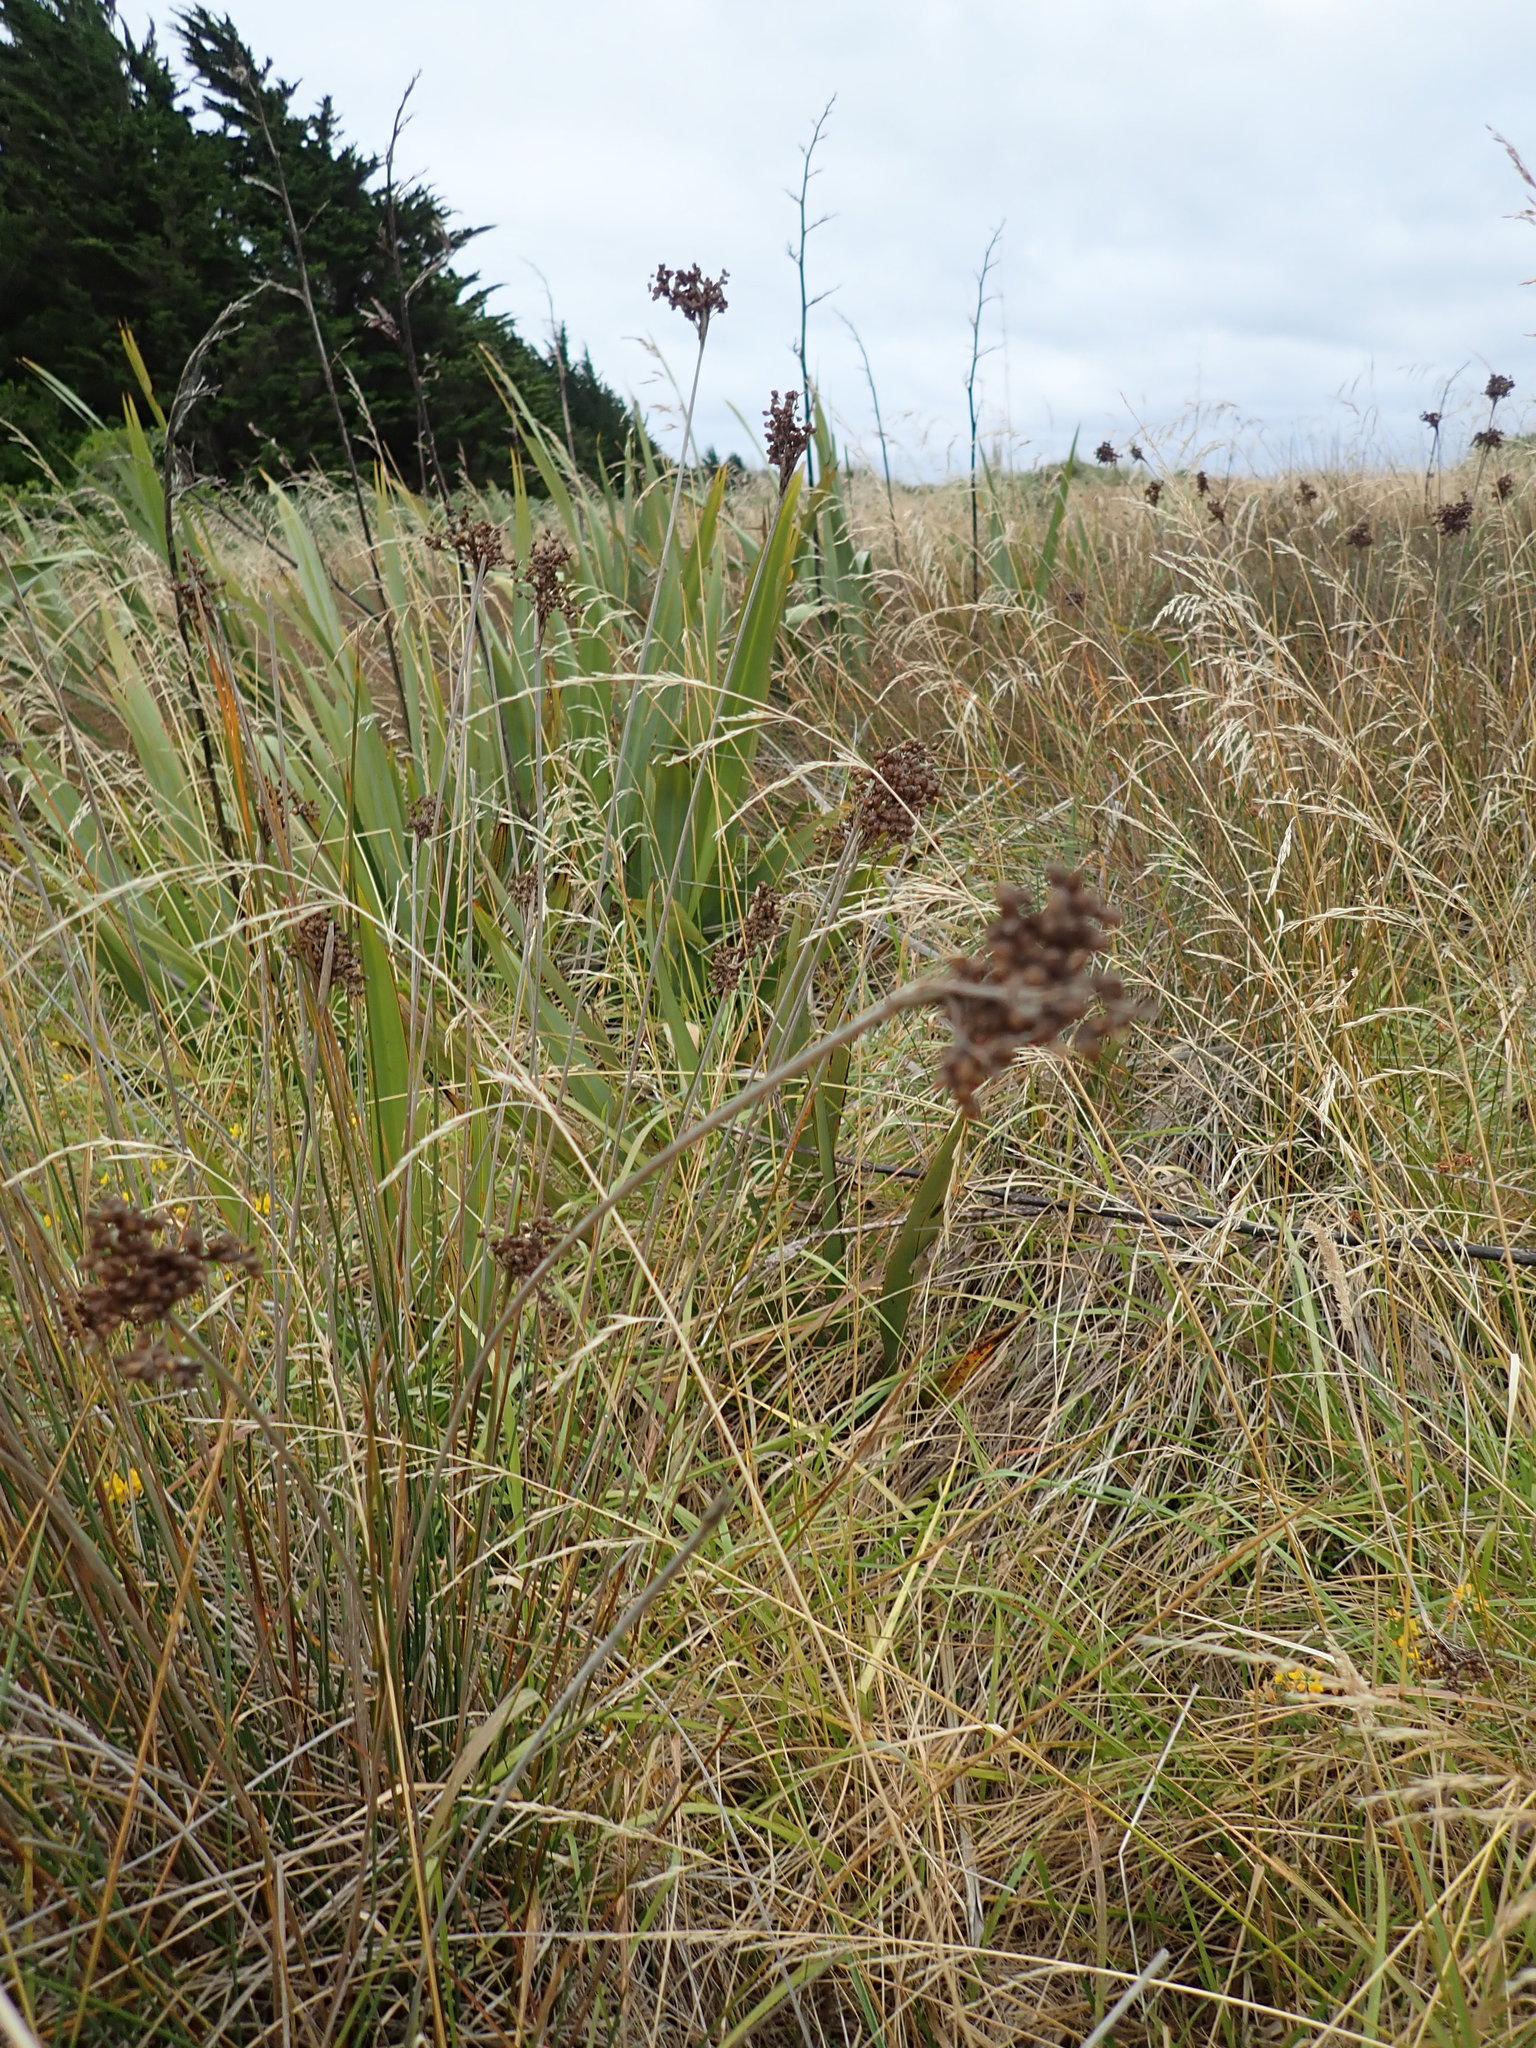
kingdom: Plantae
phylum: Tracheophyta
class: Liliopsida
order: Poales
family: Juncaceae
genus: Juncus
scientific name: Juncus acutus
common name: Sharp rush
